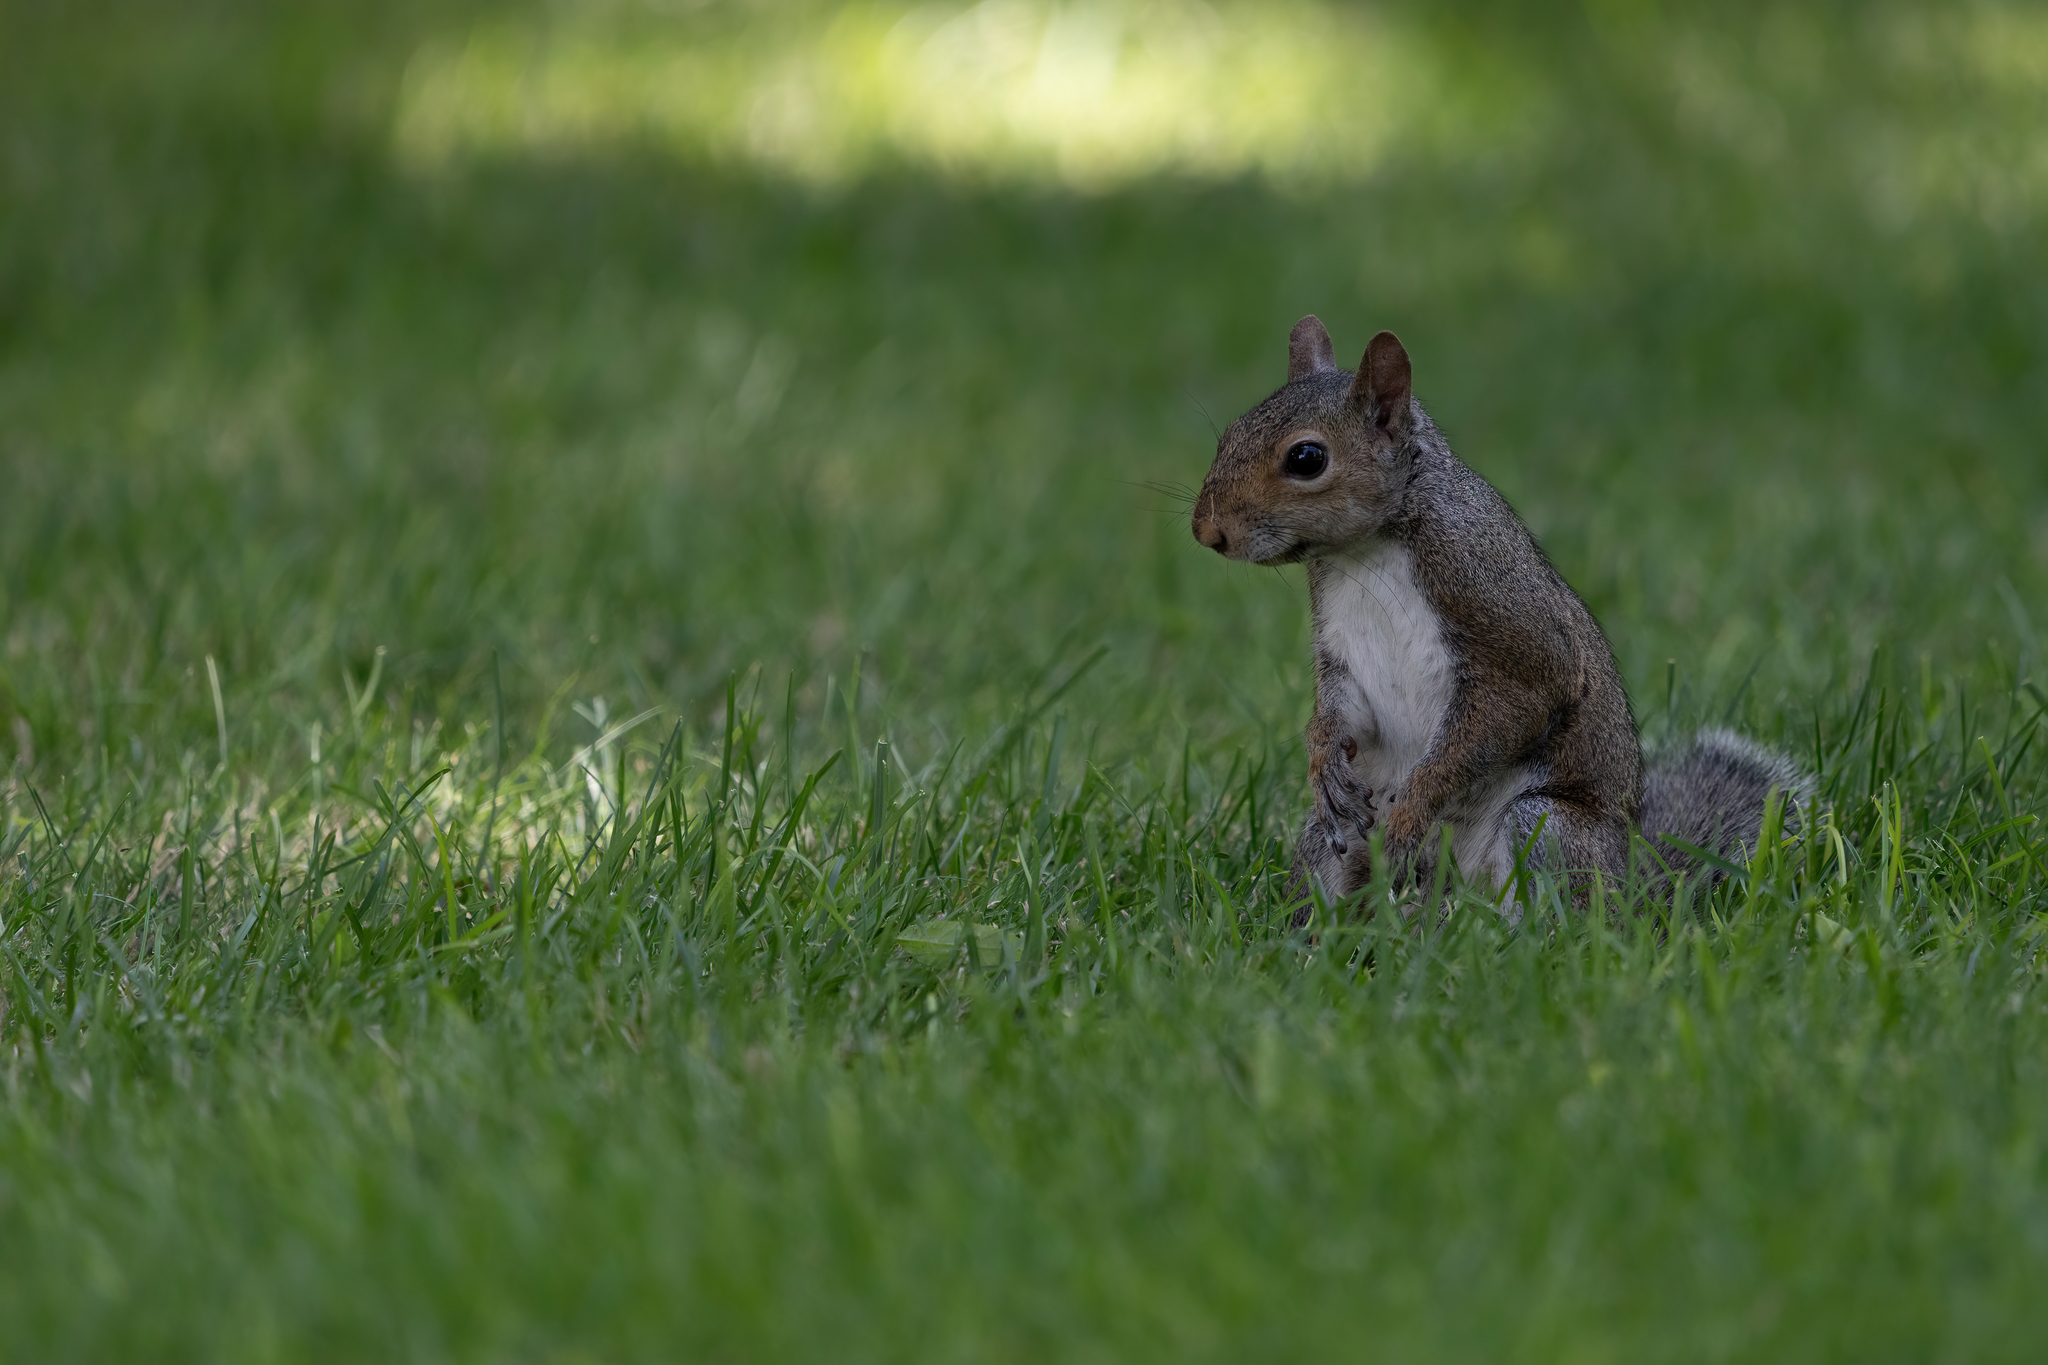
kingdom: Animalia
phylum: Chordata
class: Mammalia
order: Rodentia
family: Sciuridae
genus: Sciurus
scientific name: Sciurus carolinensis
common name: Eastern gray squirrel
